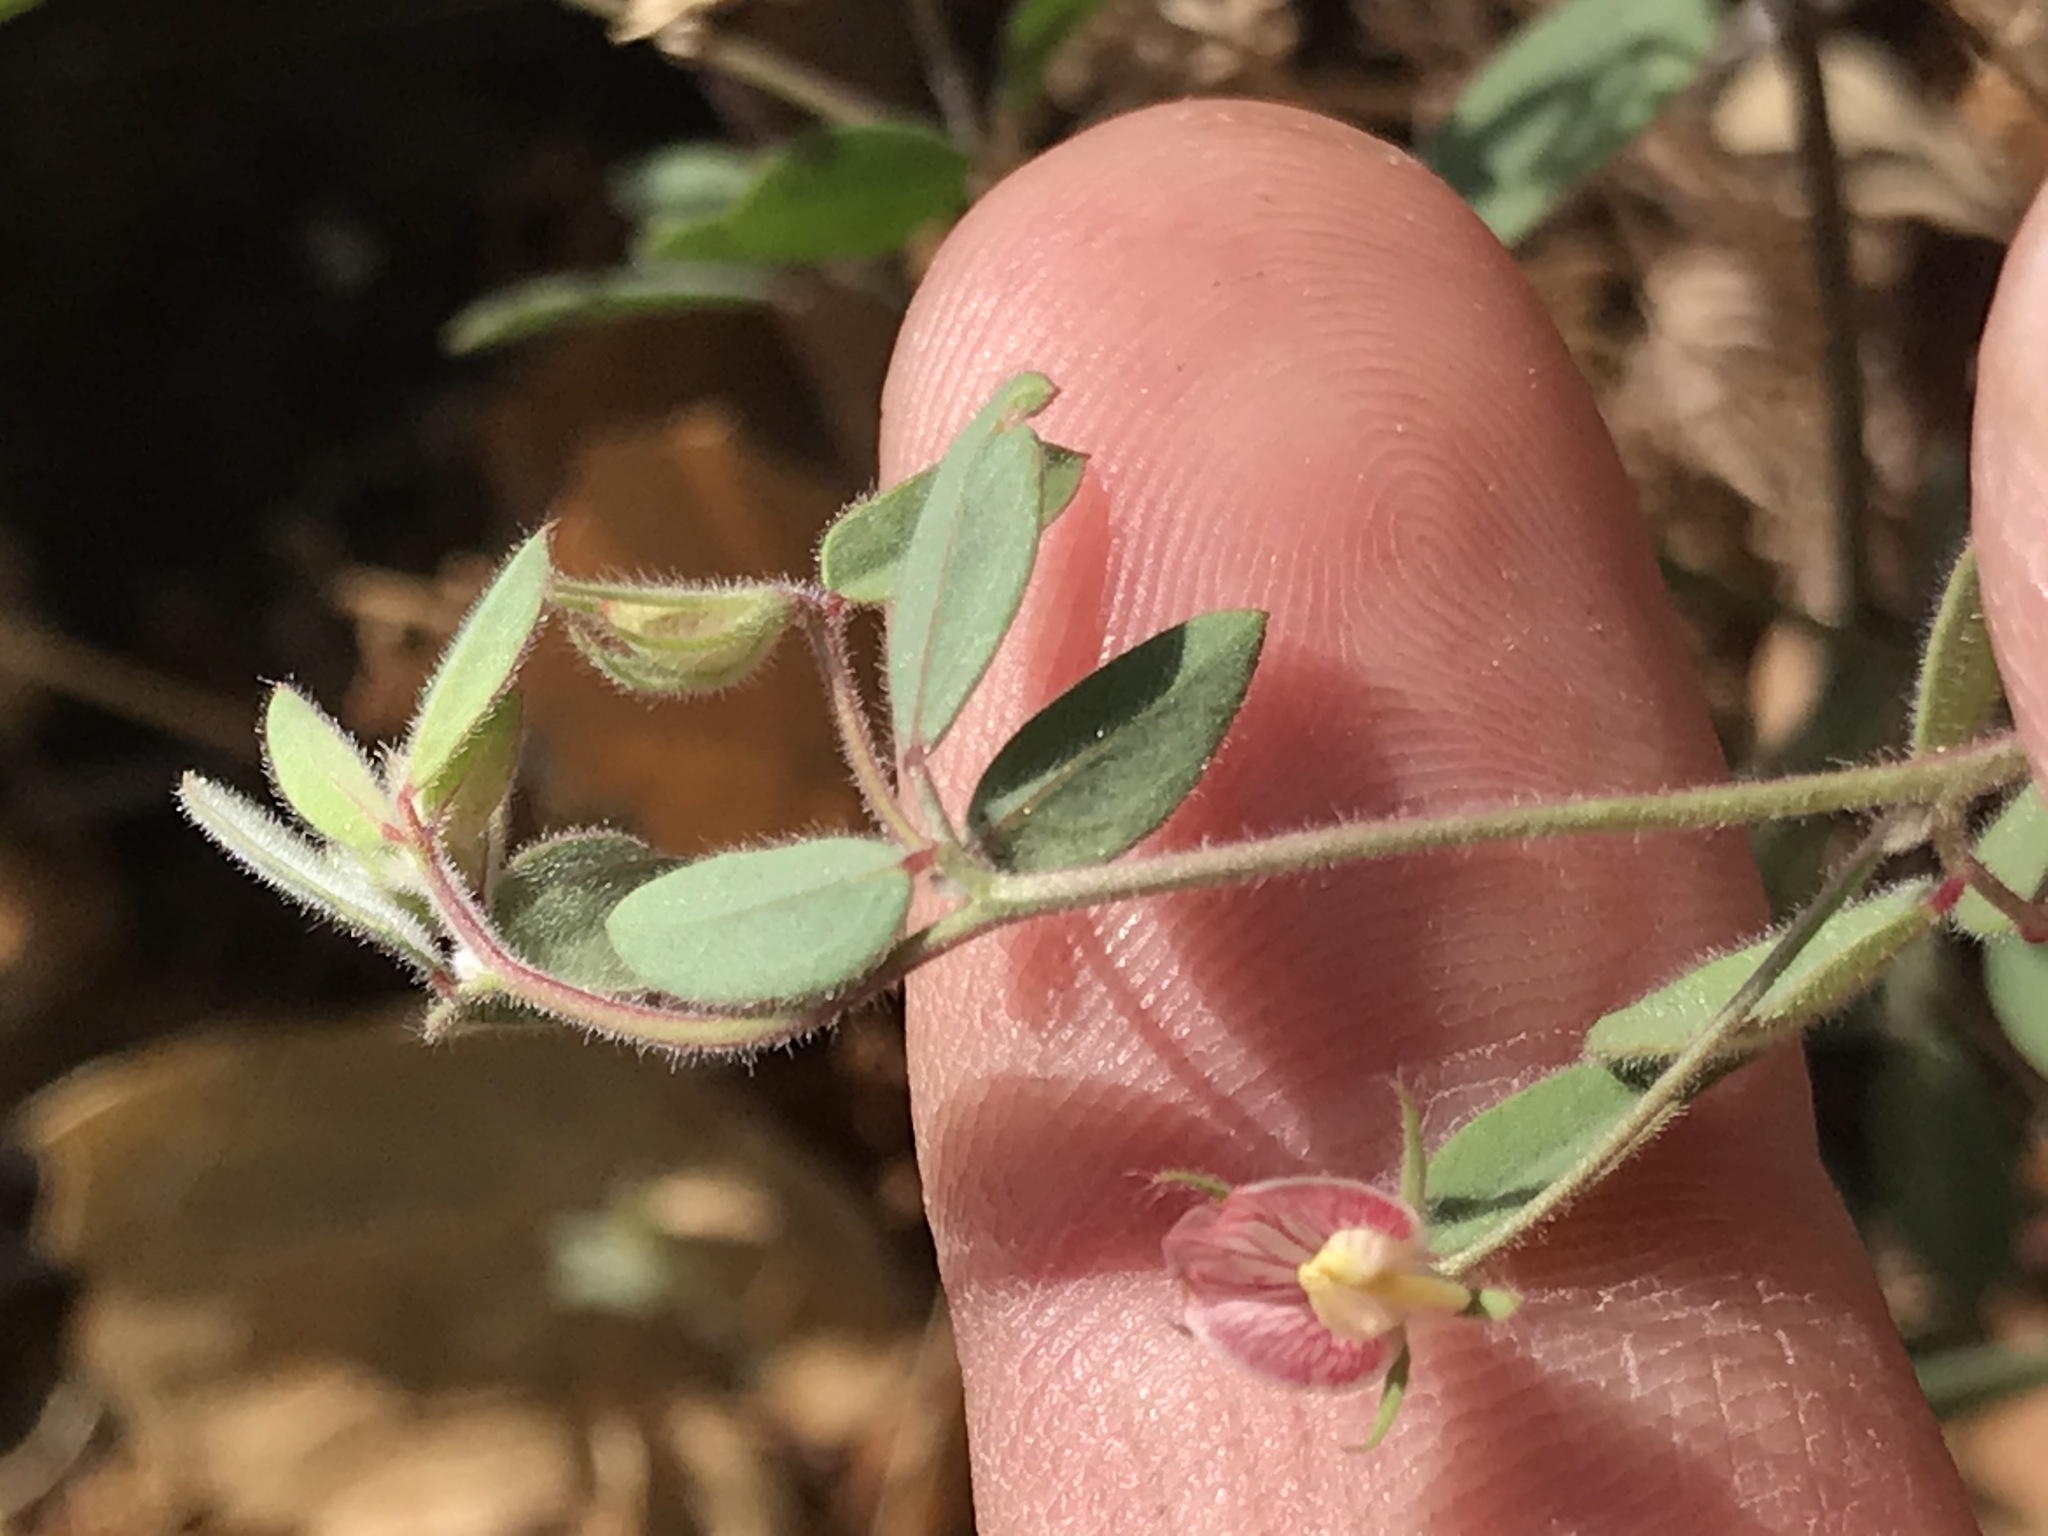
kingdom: Plantae
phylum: Tracheophyta
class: Magnoliopsida
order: Fabales
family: Fabaceae
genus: Acmispon
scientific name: Acmispon americanus
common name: American bird's-foot trefoil
